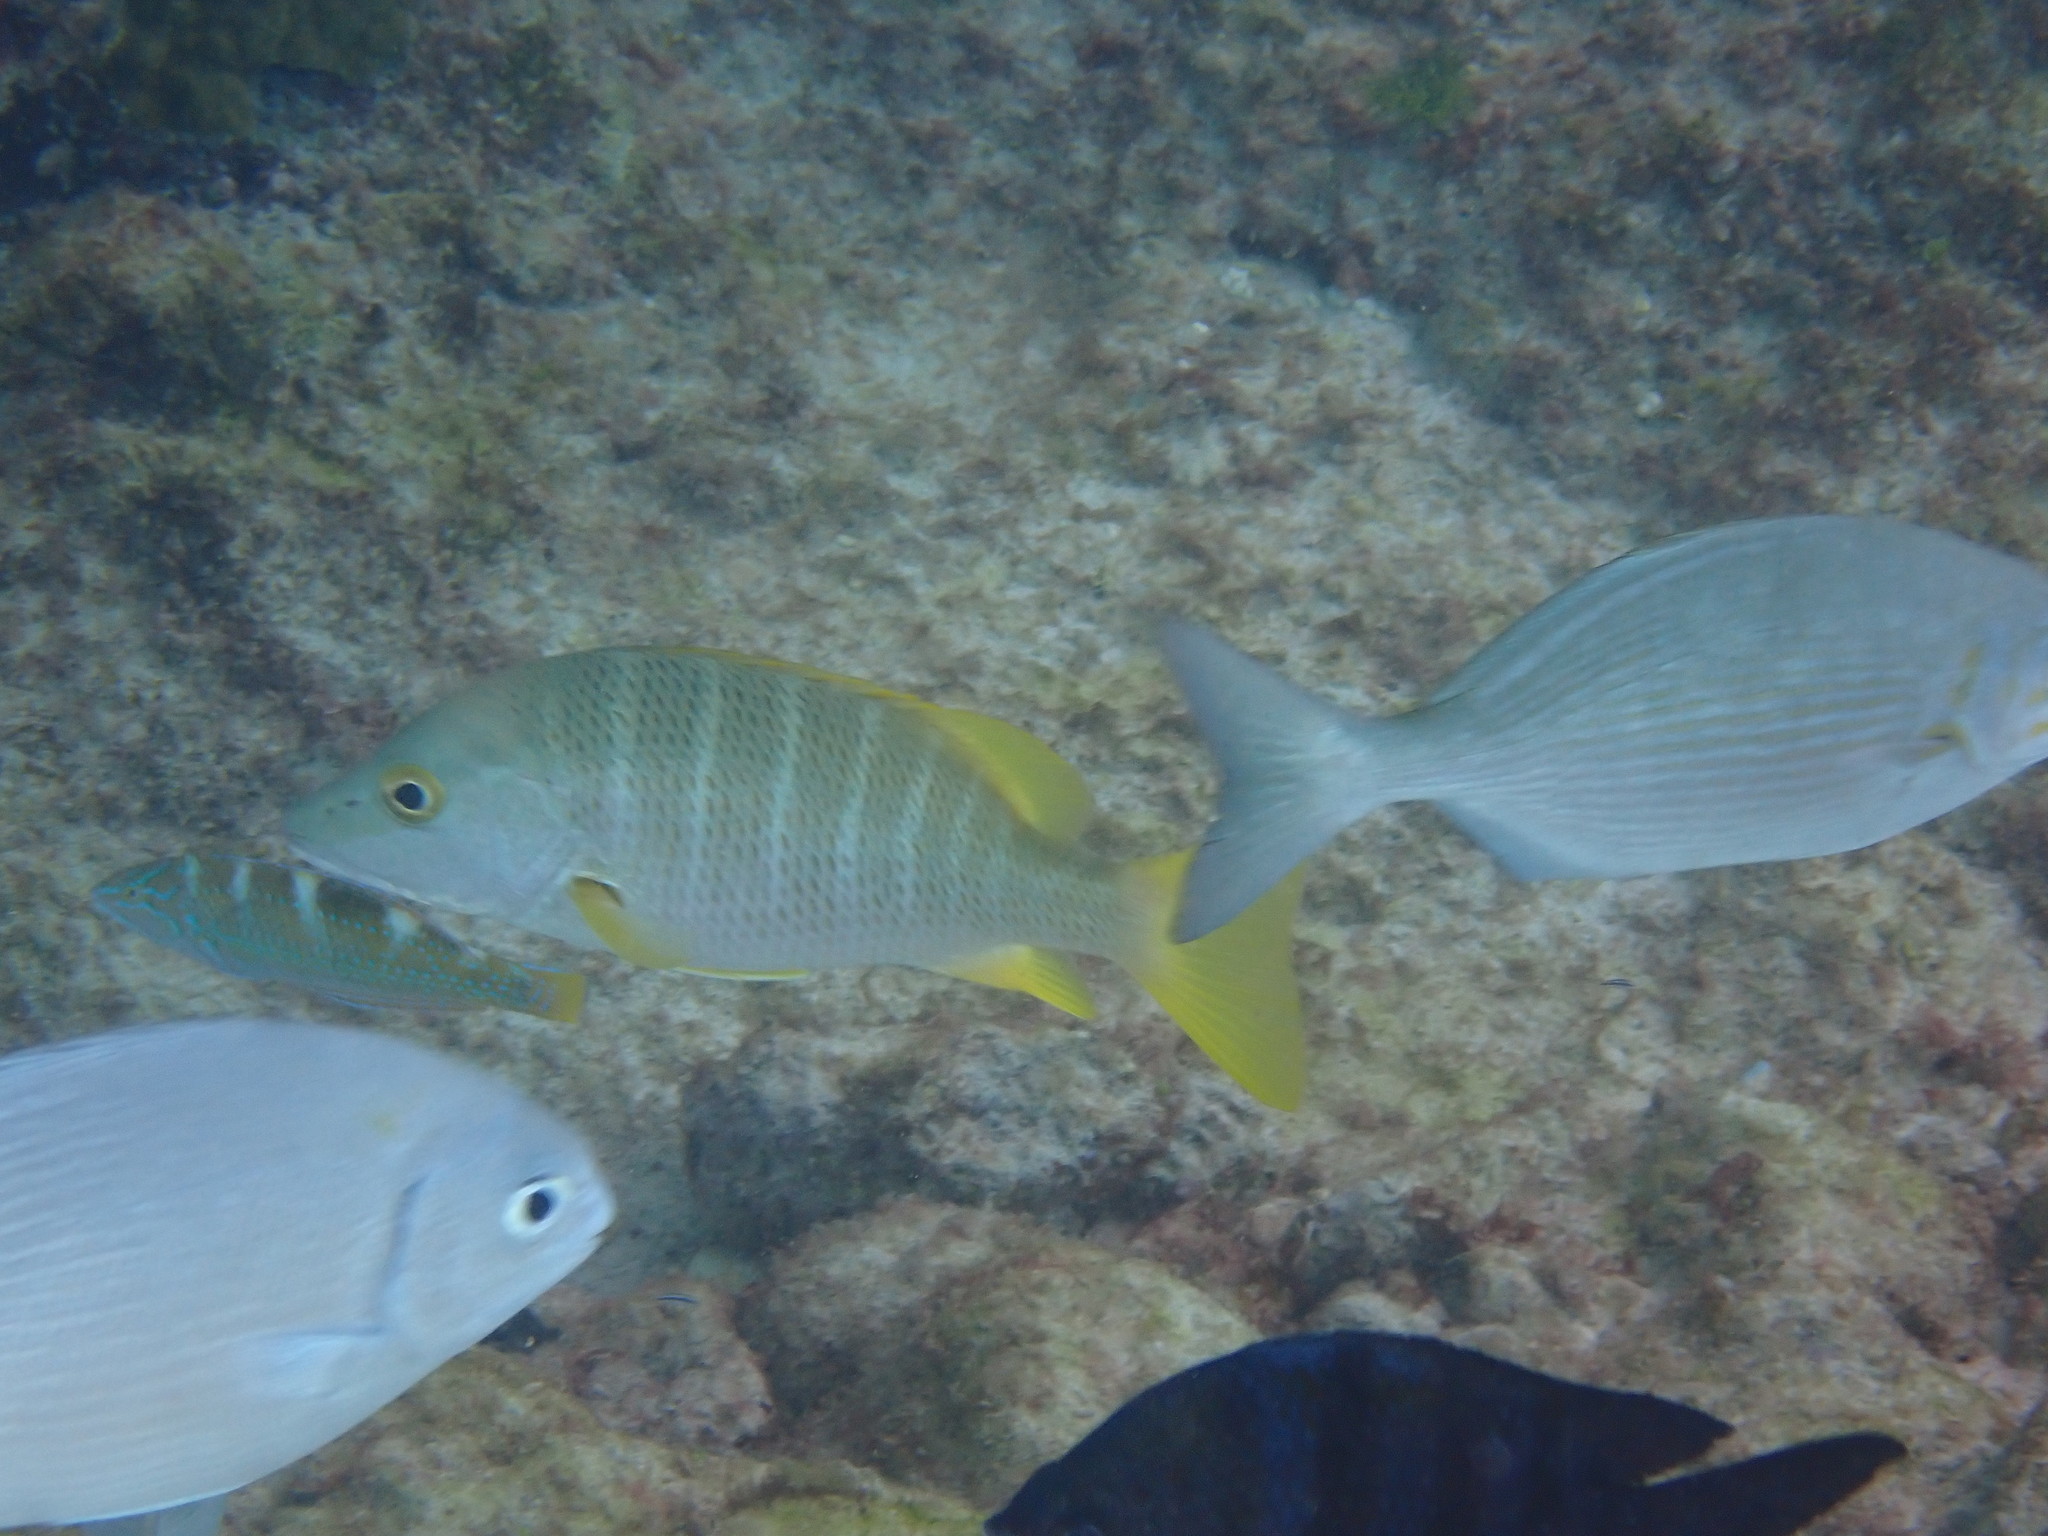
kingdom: Animalia
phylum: Chordata
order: Perciformes
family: Kyphosidae
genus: Kyphosus
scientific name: Kyphosus vaigiensis
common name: Brassy chub
